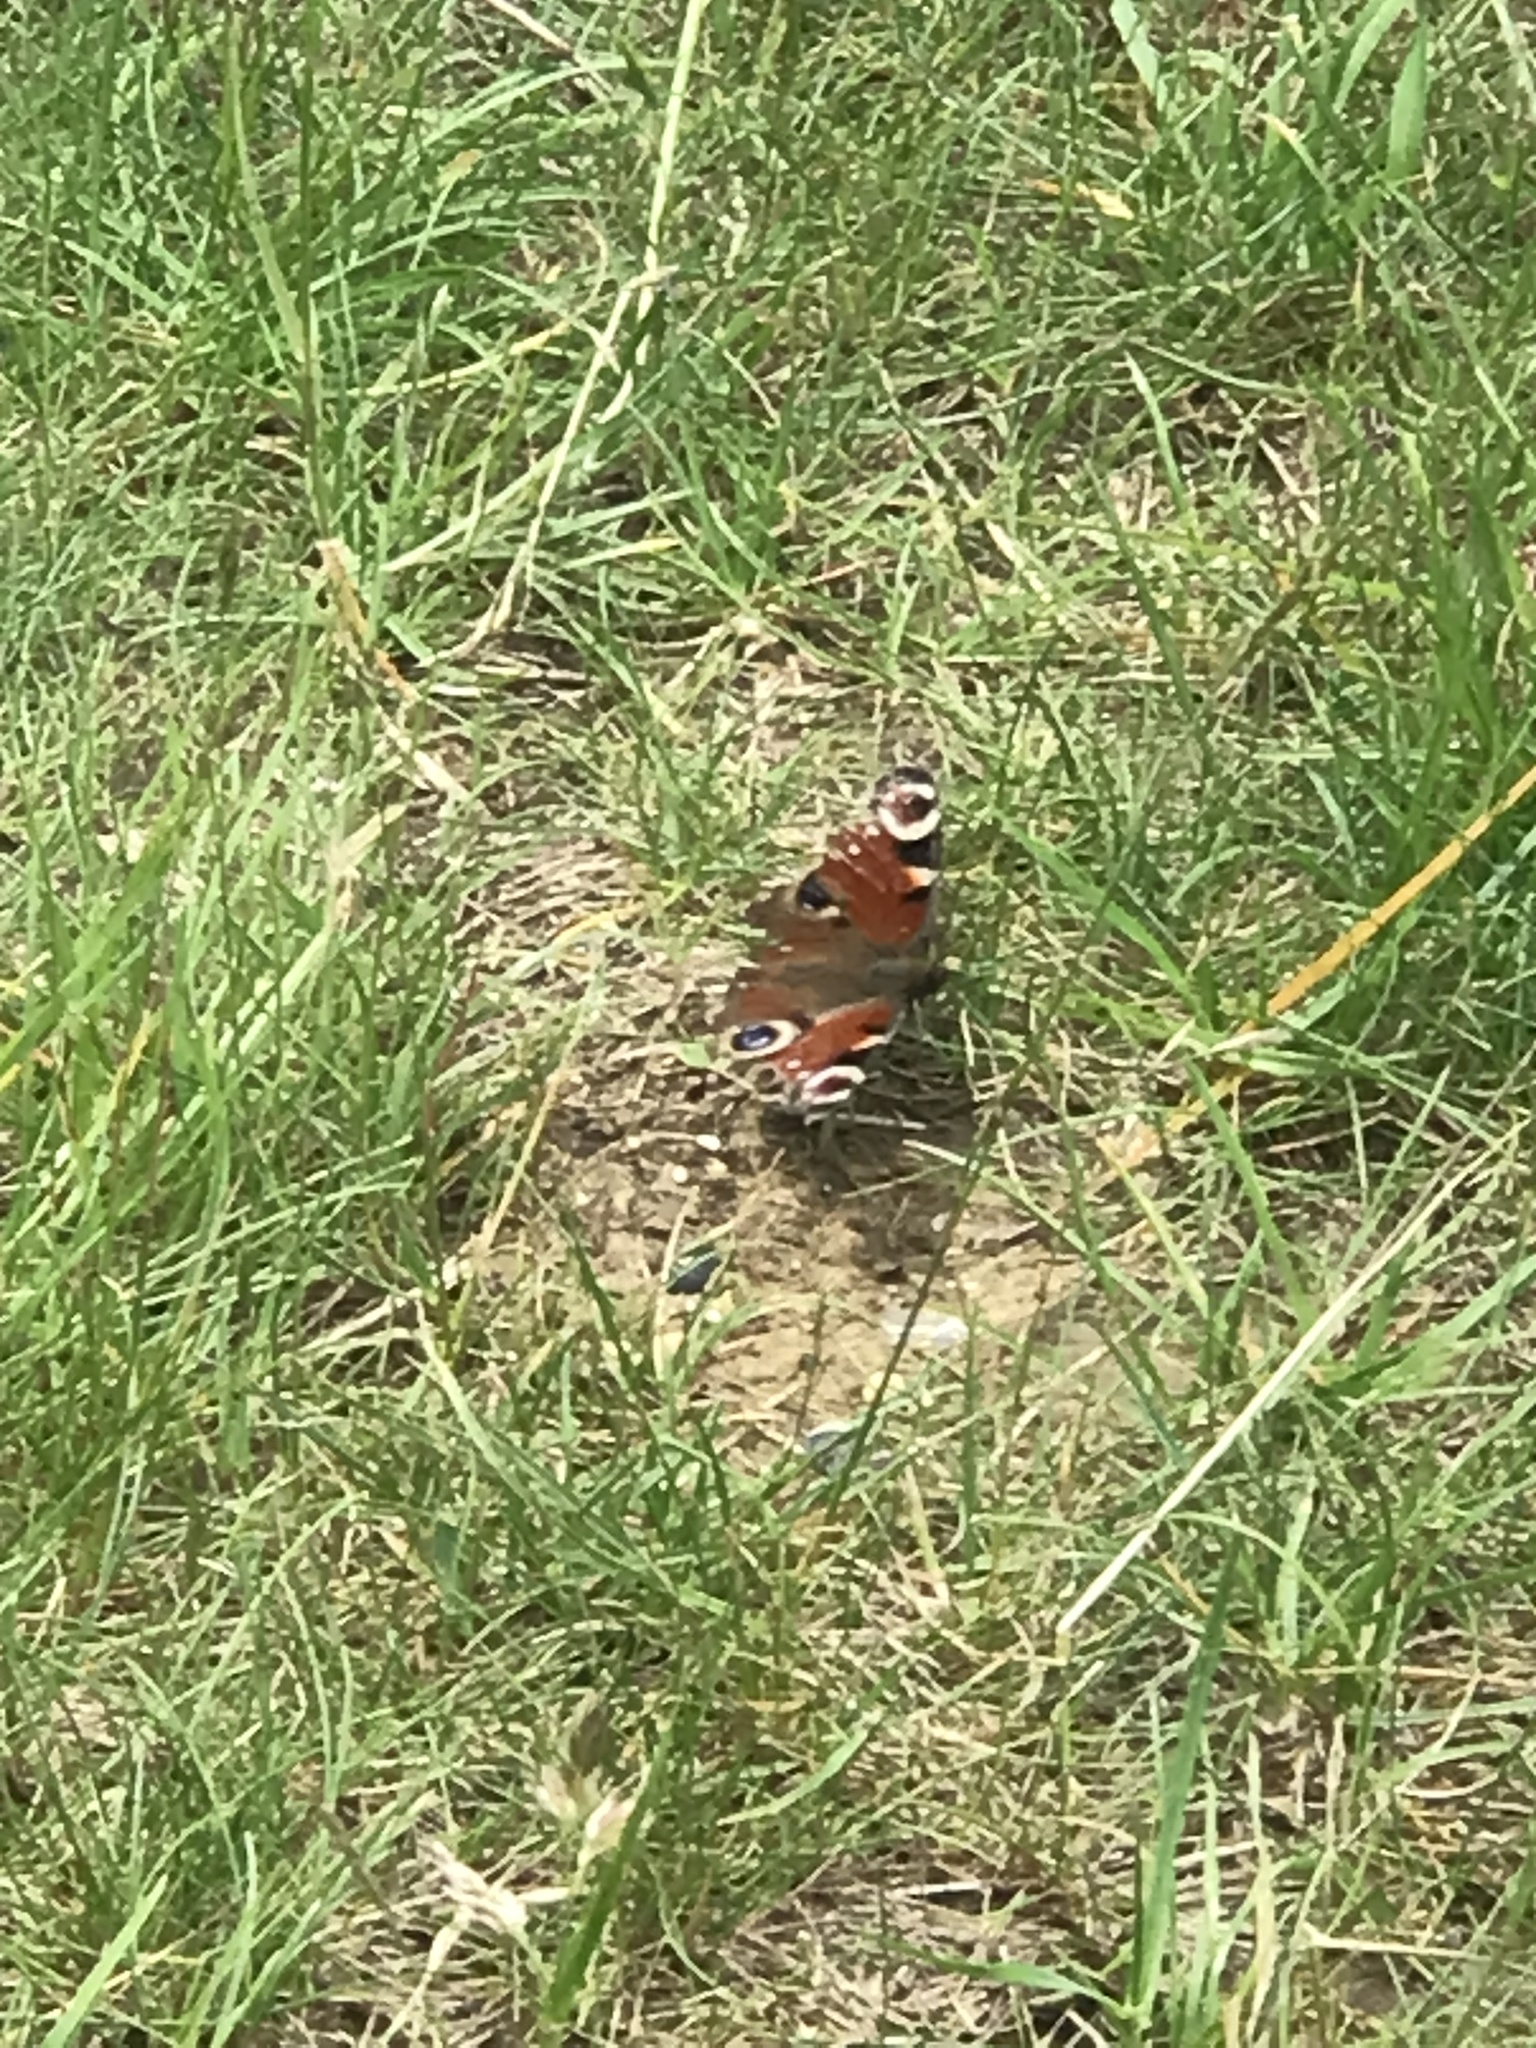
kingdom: Animalia
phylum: Arthropoda
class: Insecta
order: Lepidoptera
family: Nymphalidae
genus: Aglais
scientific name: Aglais io
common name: Peacock
